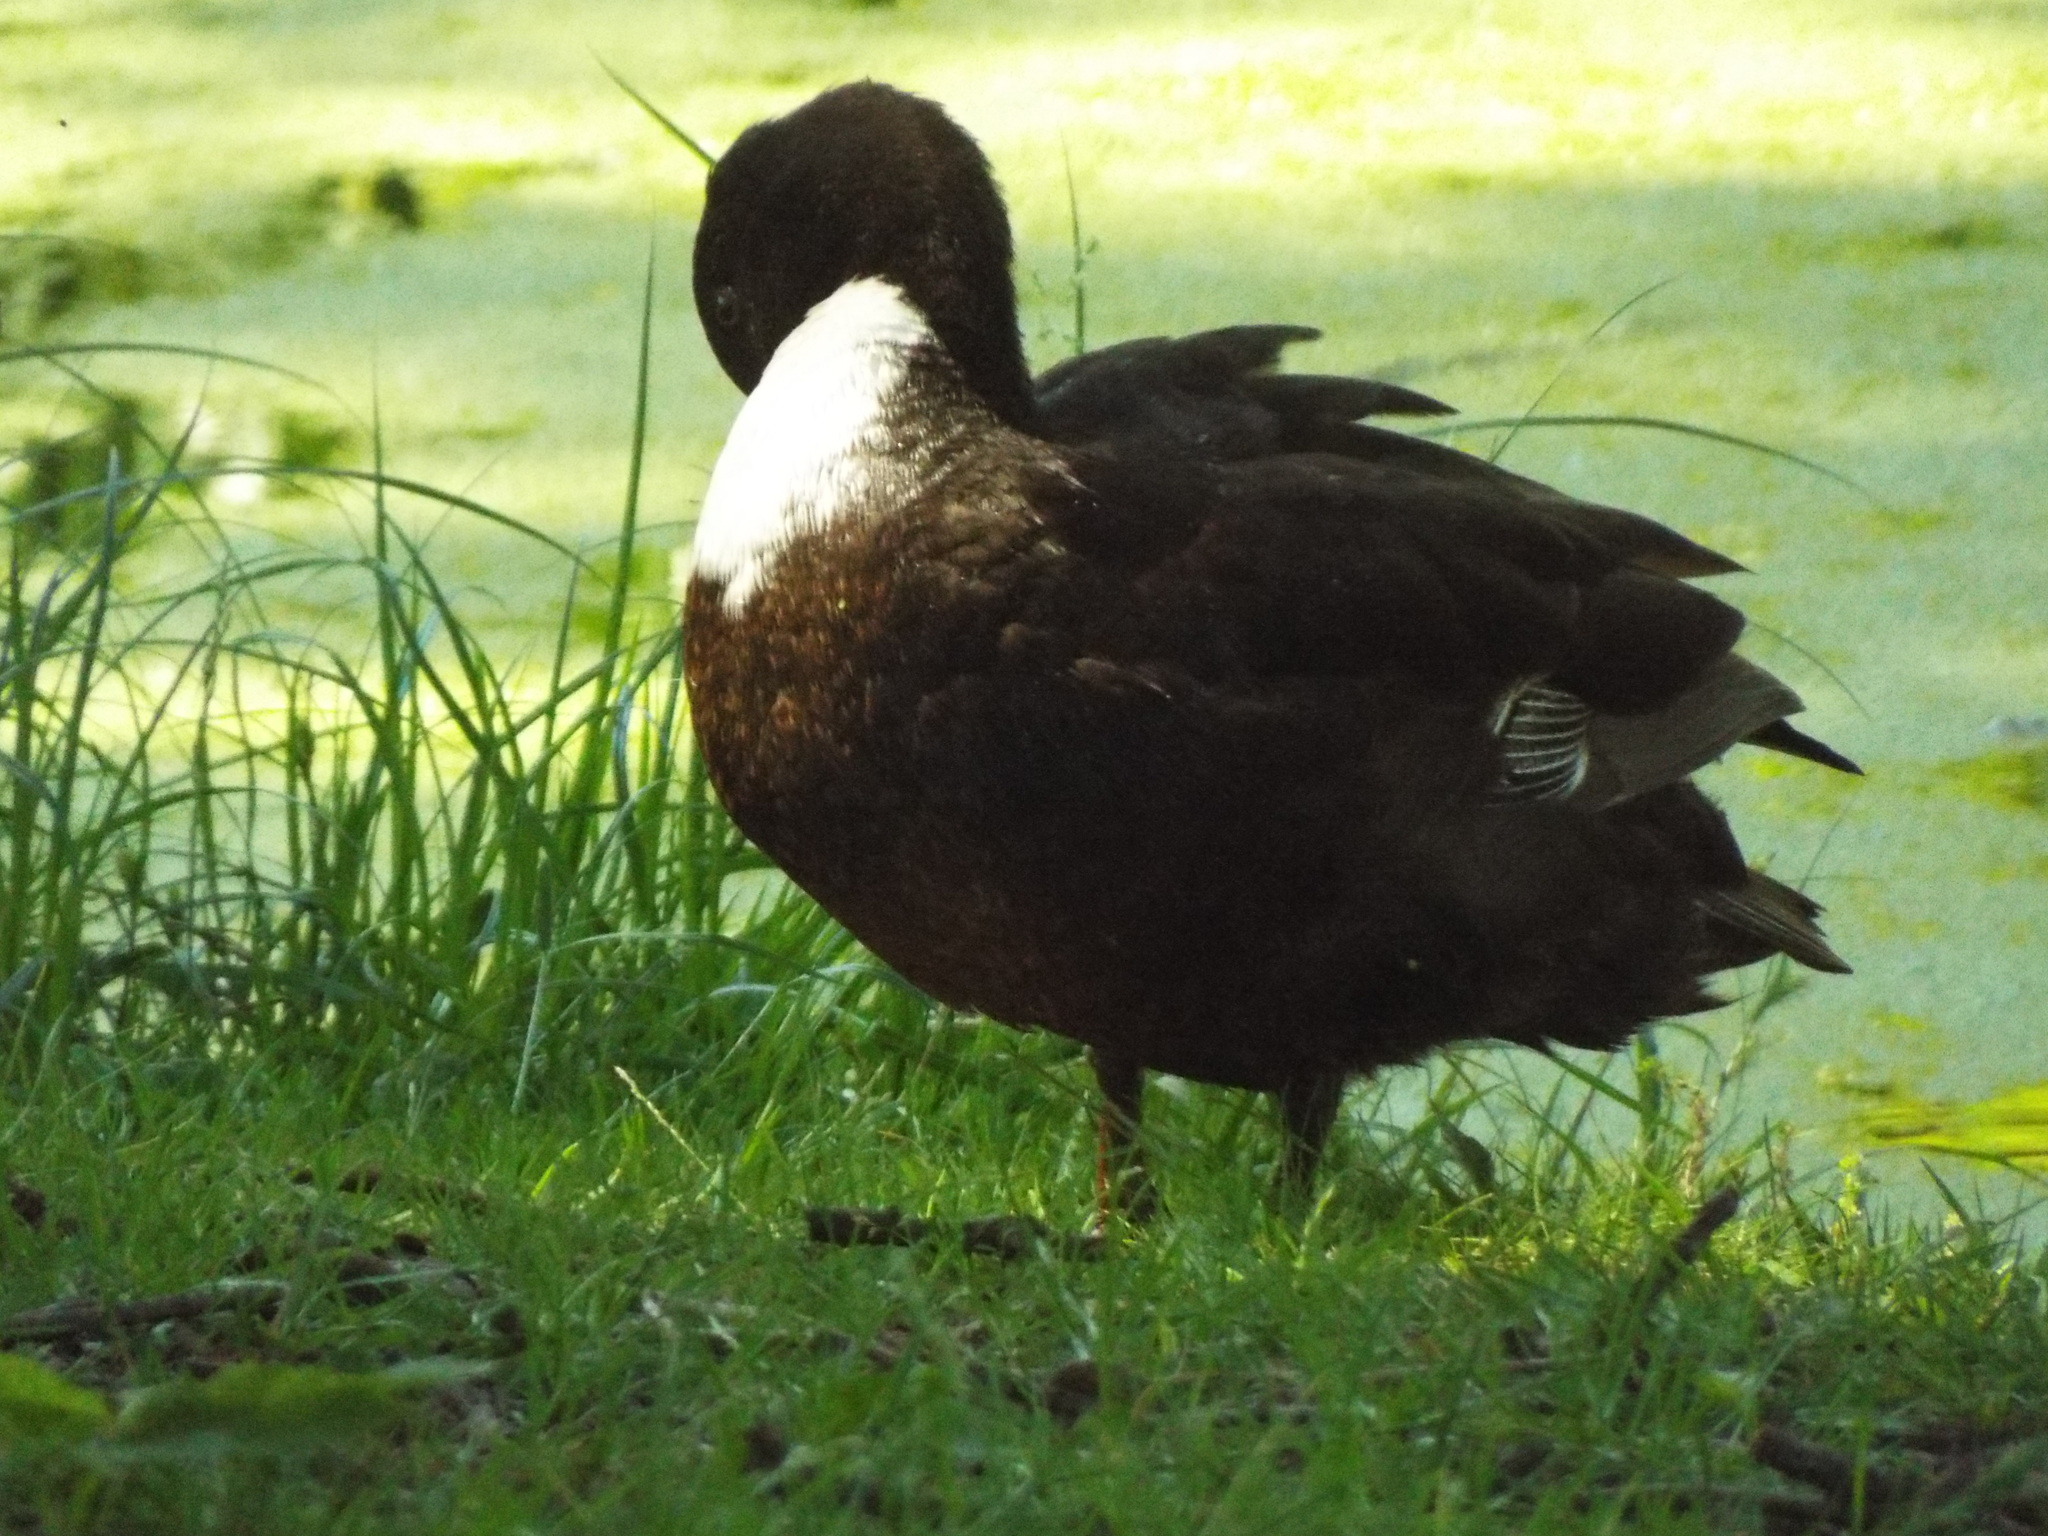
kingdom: Animalia
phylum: Chordata
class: Aves
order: Anseriformes
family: Anatidae
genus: Anas
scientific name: Anas platyrhynchos
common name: Mallard
